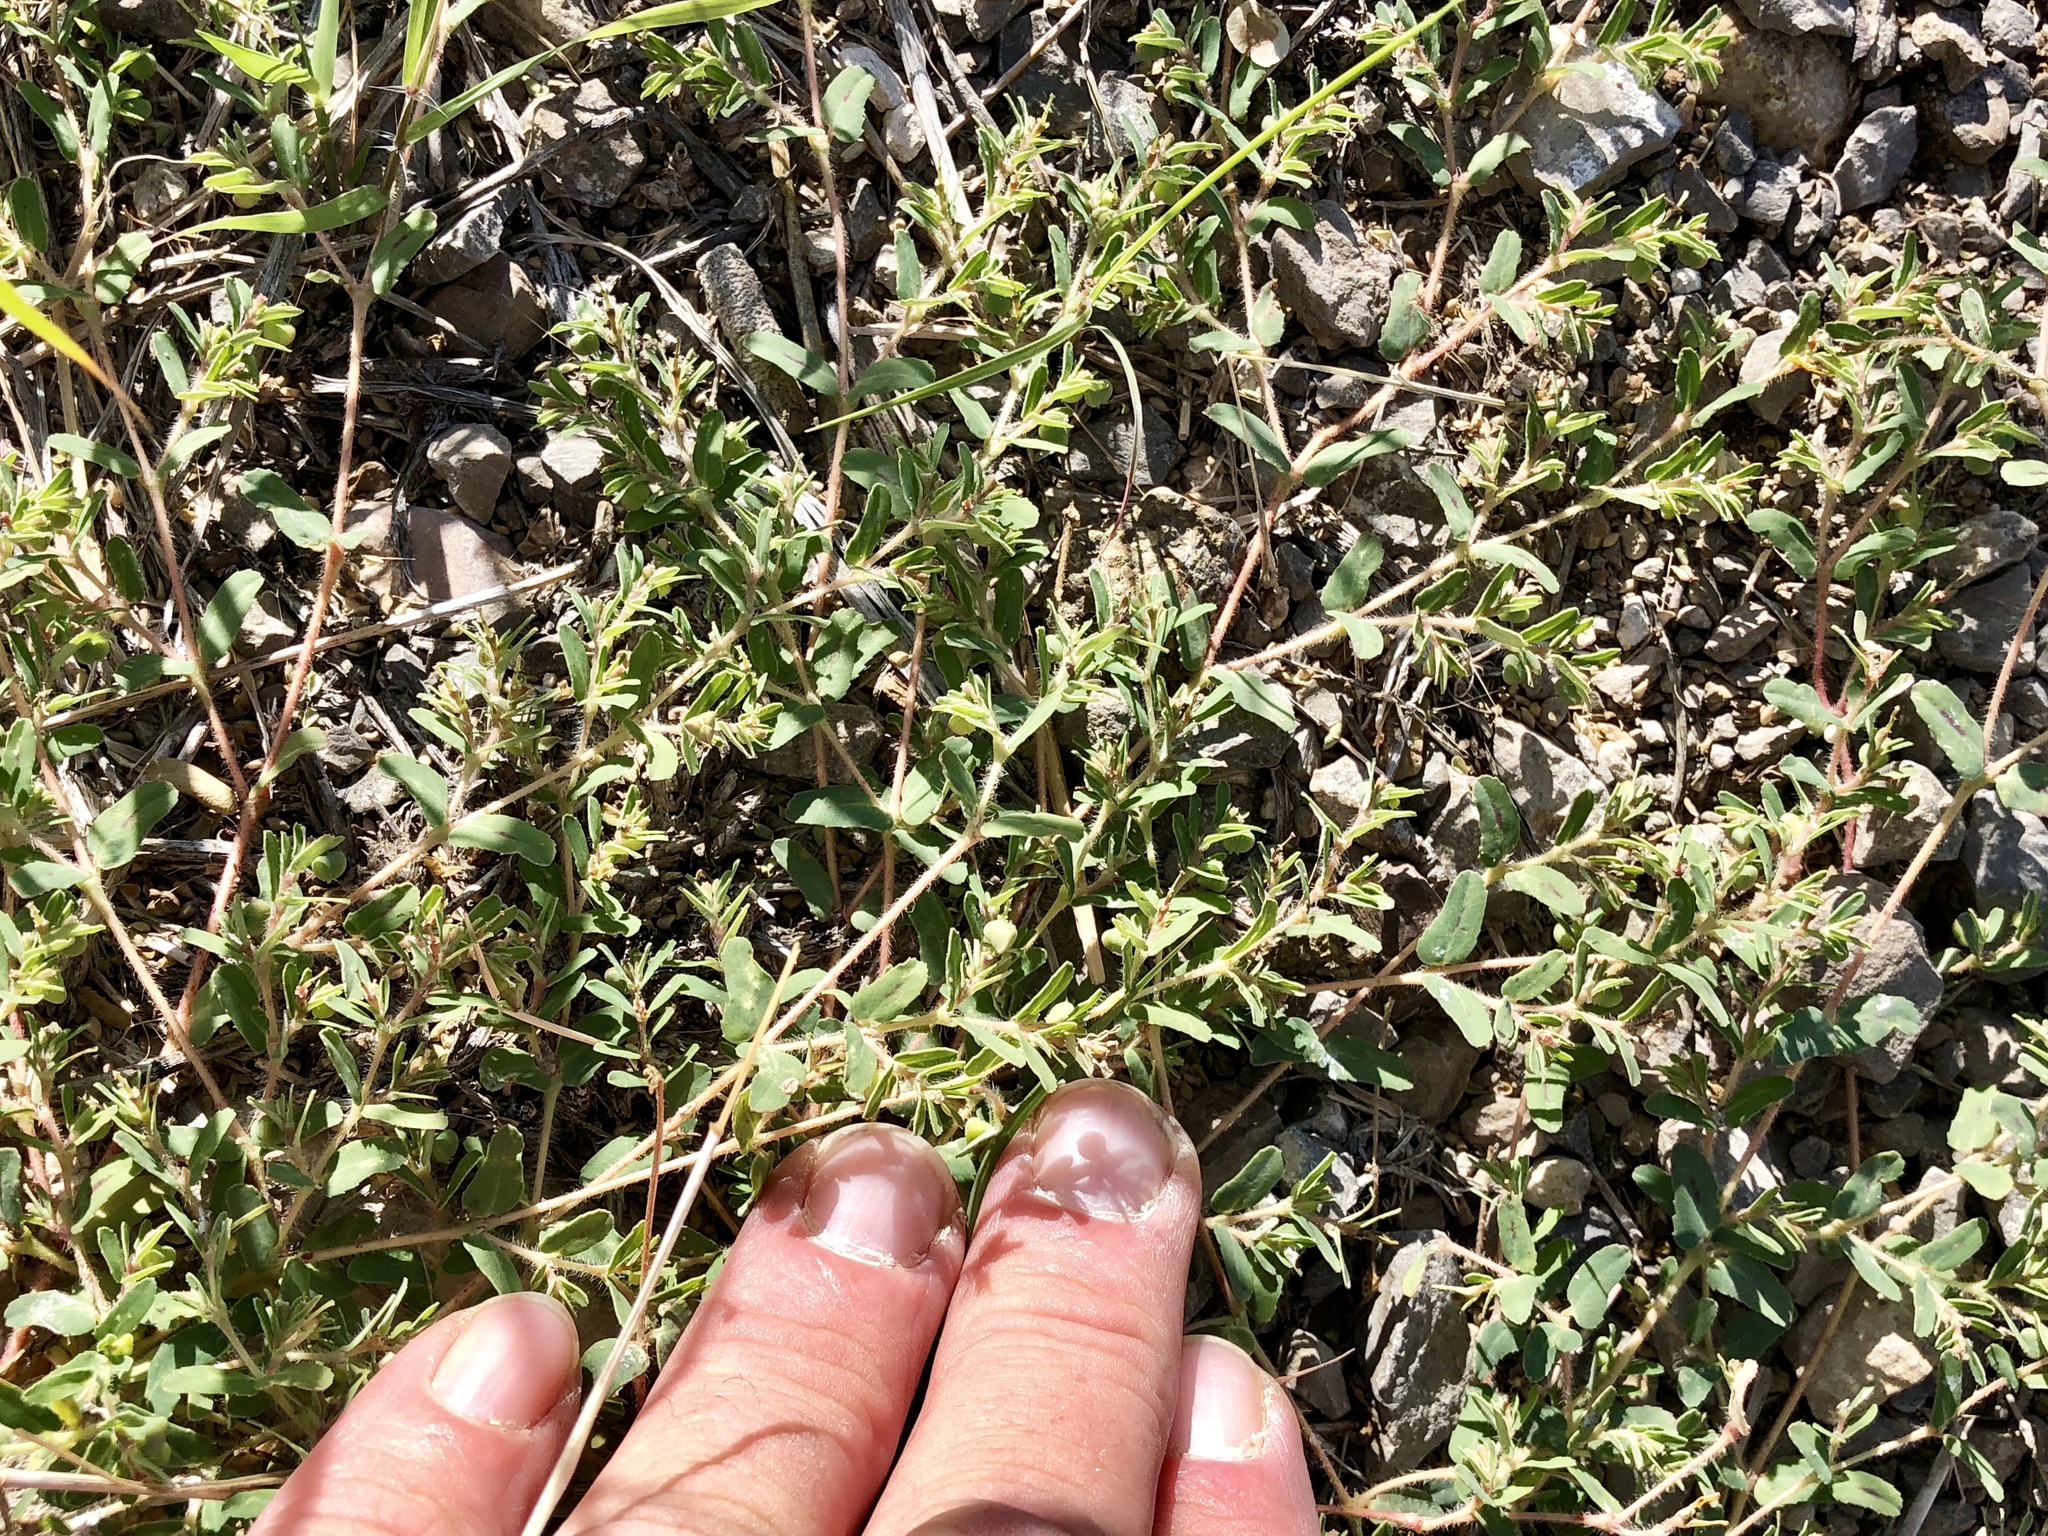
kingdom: Plantae
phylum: Tracheophyta
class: Magnoliopsida
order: Malpighiales
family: Euphorbiaceae
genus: Euphorbia
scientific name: Euphorbia serrula
